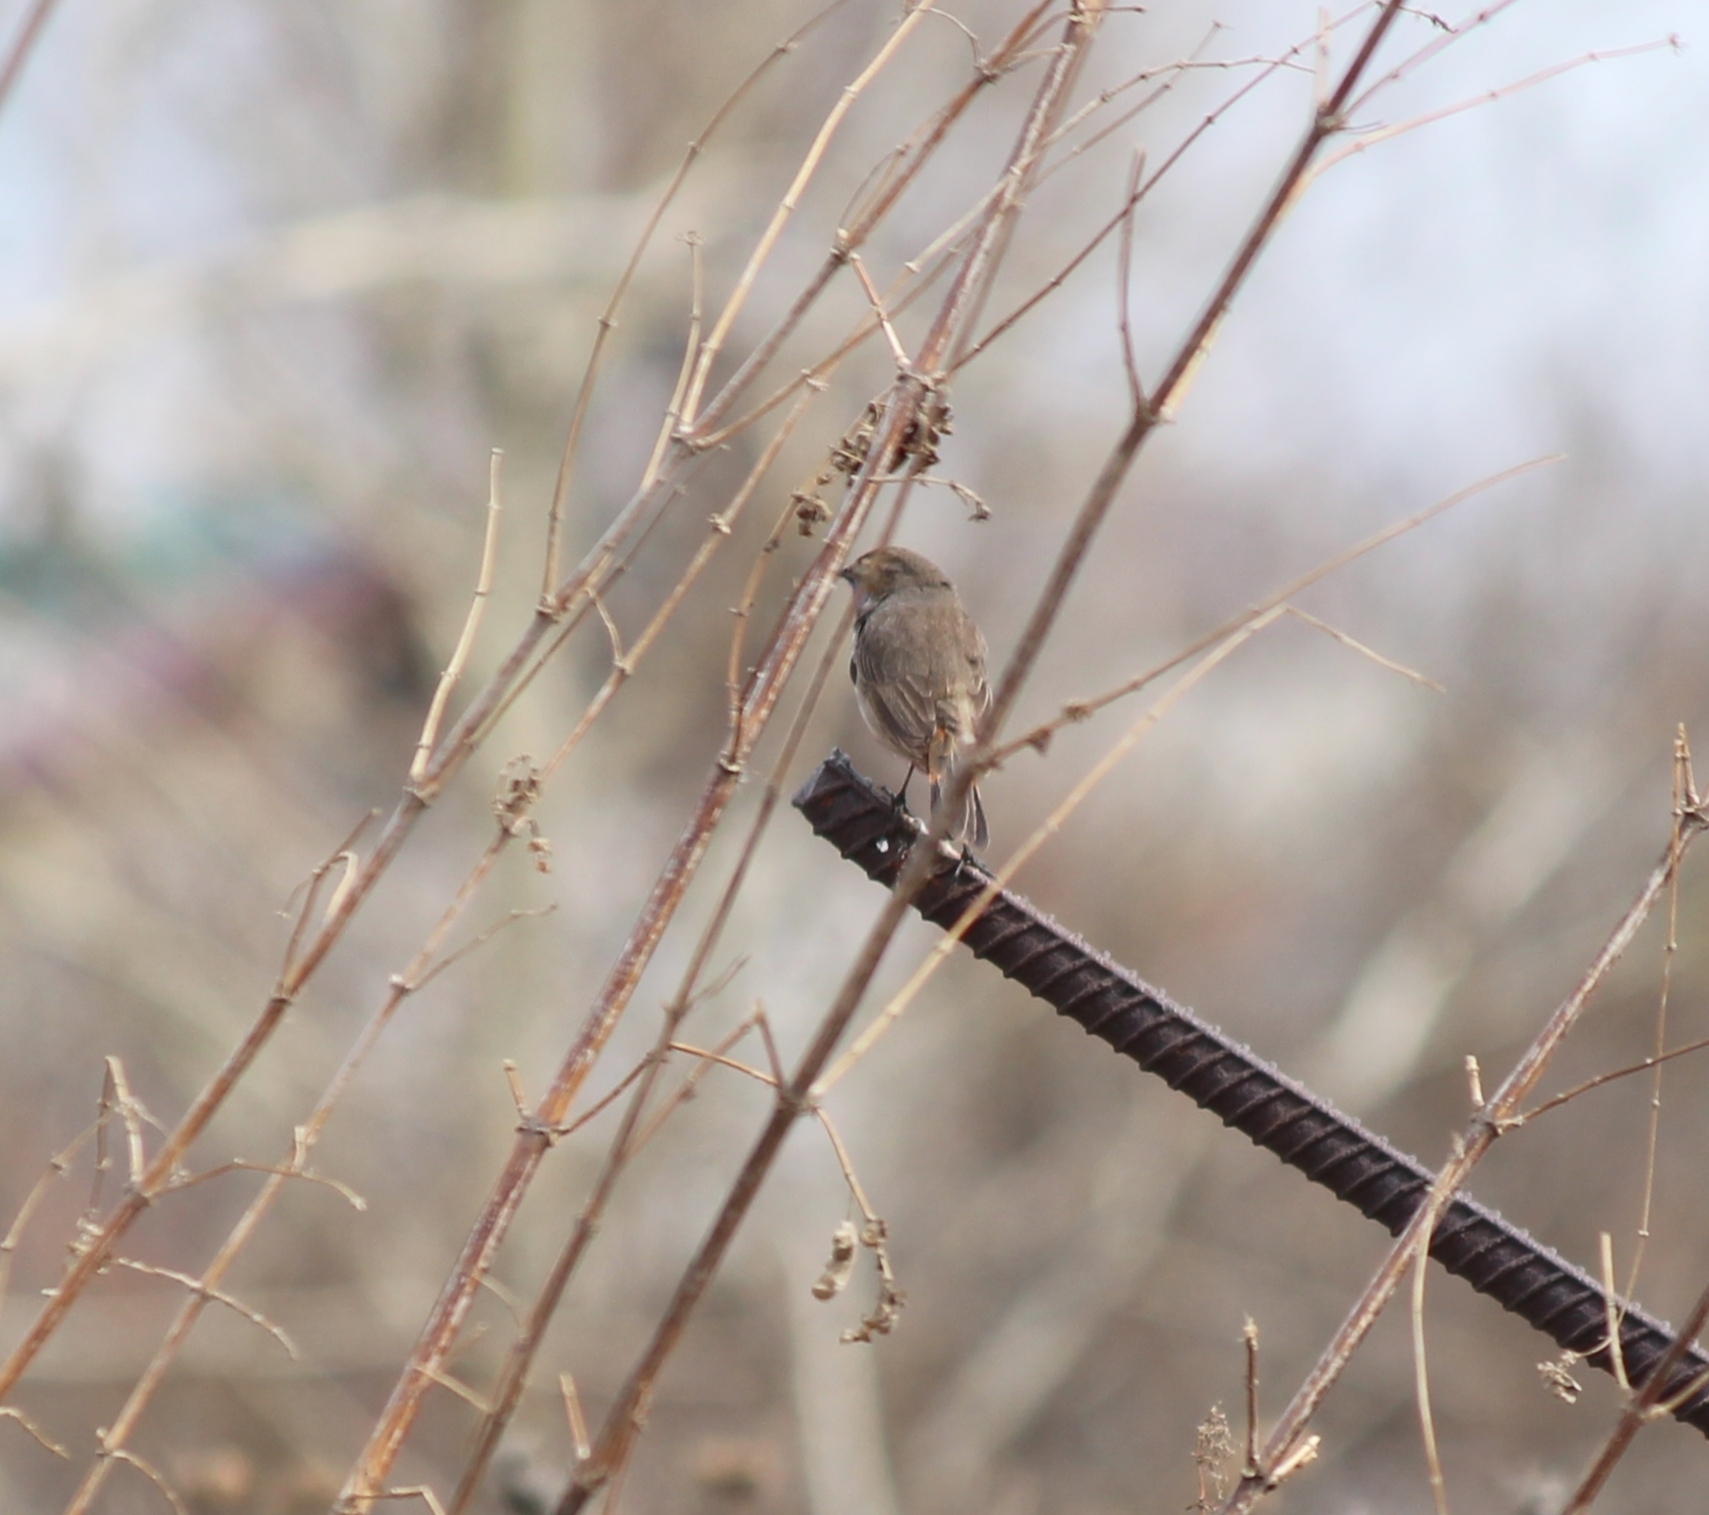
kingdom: Animalia
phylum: Chordata
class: Aves
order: Passeriformes
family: Muscicapidae
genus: Luscinia
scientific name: Luscinia svecica
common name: Bluethroat
